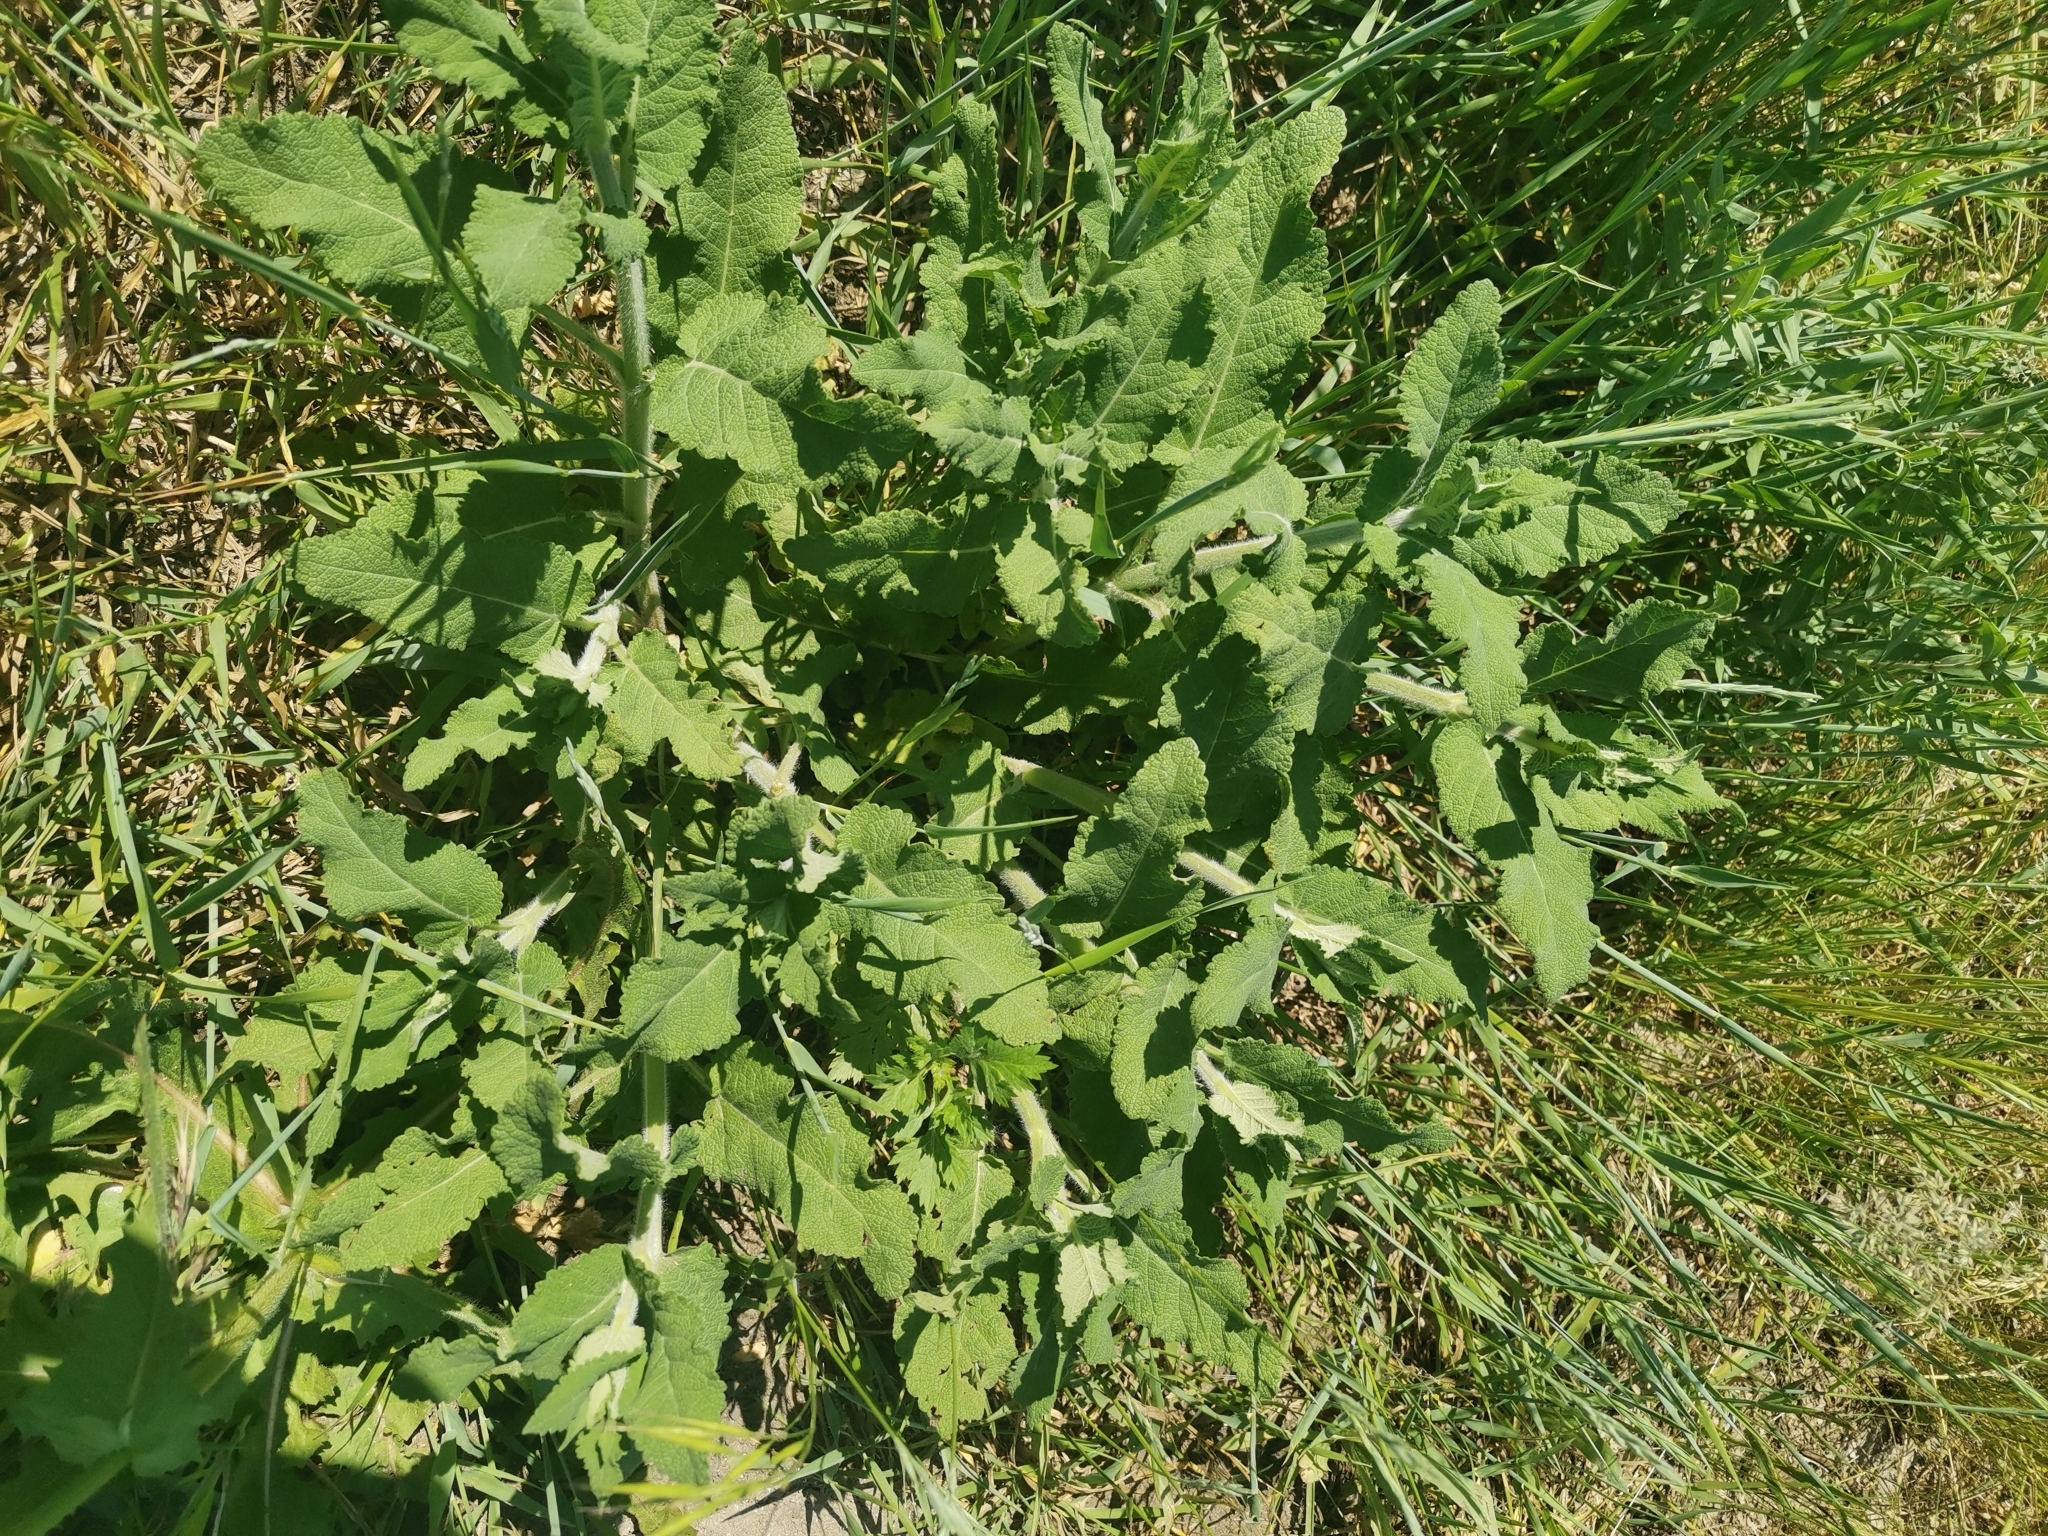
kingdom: Plantae
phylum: Tracheophyta
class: Magnoliopsida
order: Lamiales
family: Lamiaceae
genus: Salvia
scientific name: Salvia nemorosa
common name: Balkan clary
